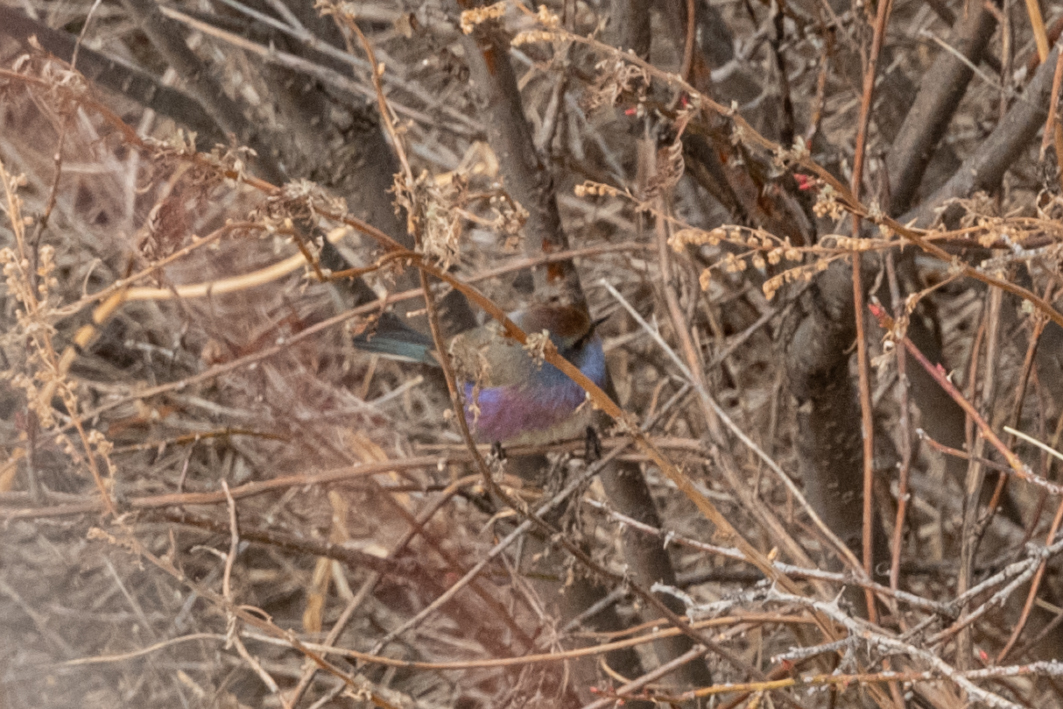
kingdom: Animalia
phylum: Chordata
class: Aves
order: Passeriformes
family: Aegithalidae
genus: Leptopoecile
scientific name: Leptopoecile sophiae
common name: White-browed tit-warbler
